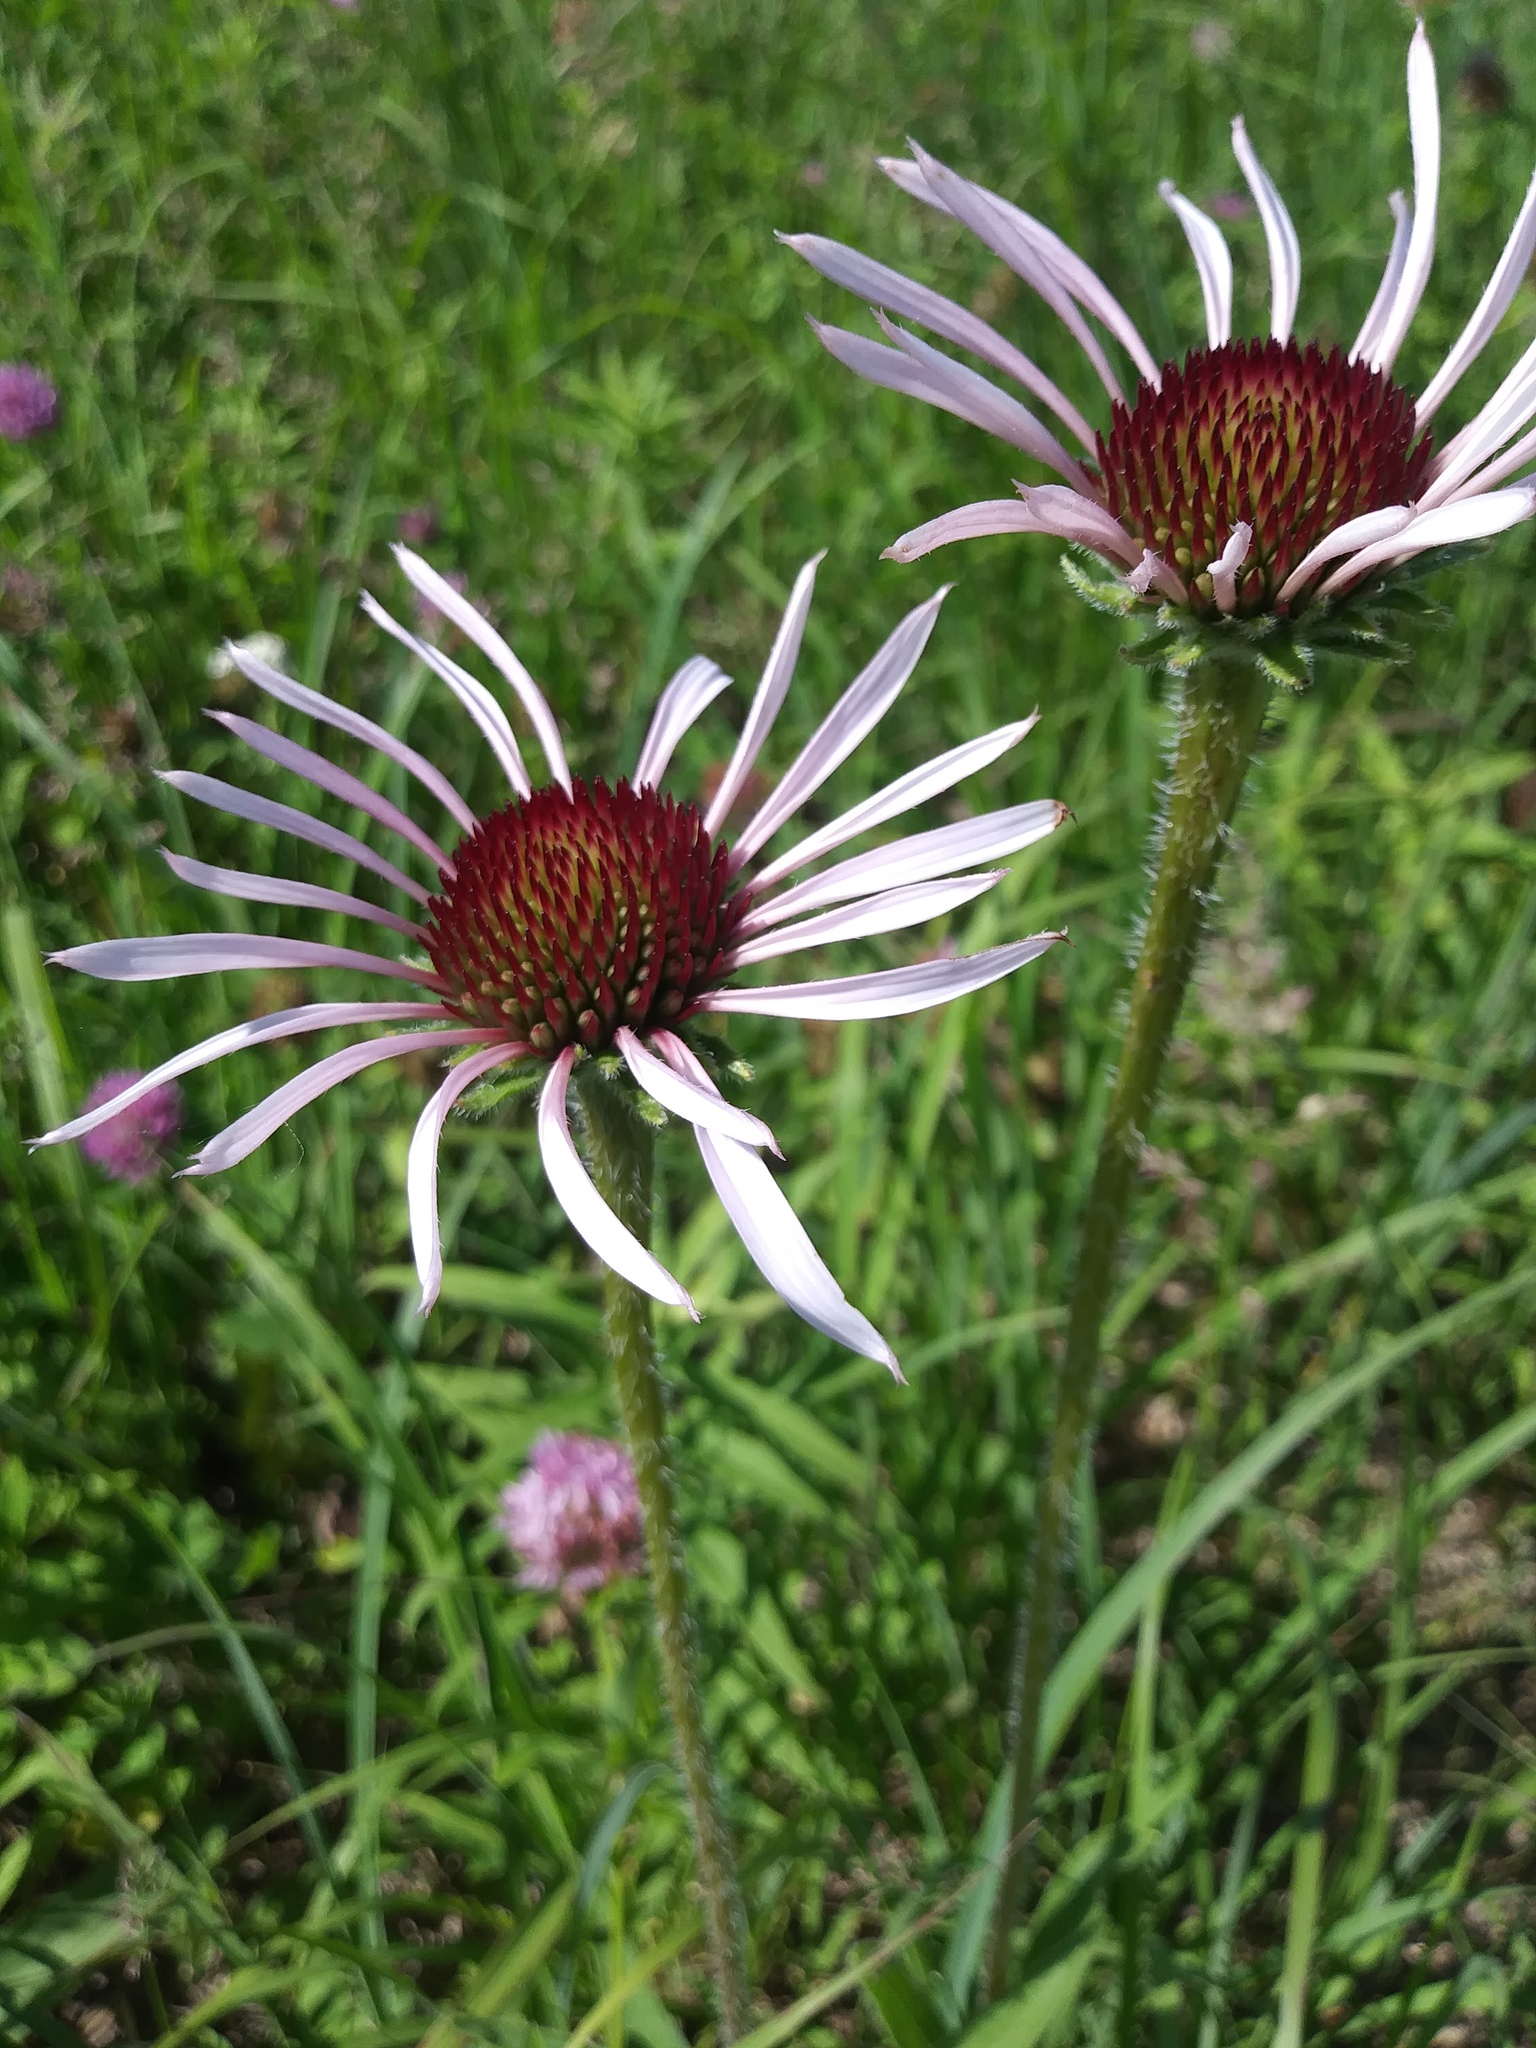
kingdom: Plantae
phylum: Tracheophyta
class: Magnoliopsida
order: Asterales
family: Asteraceae
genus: Echinacea
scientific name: Echinacea pallida
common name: Pale echinacea
